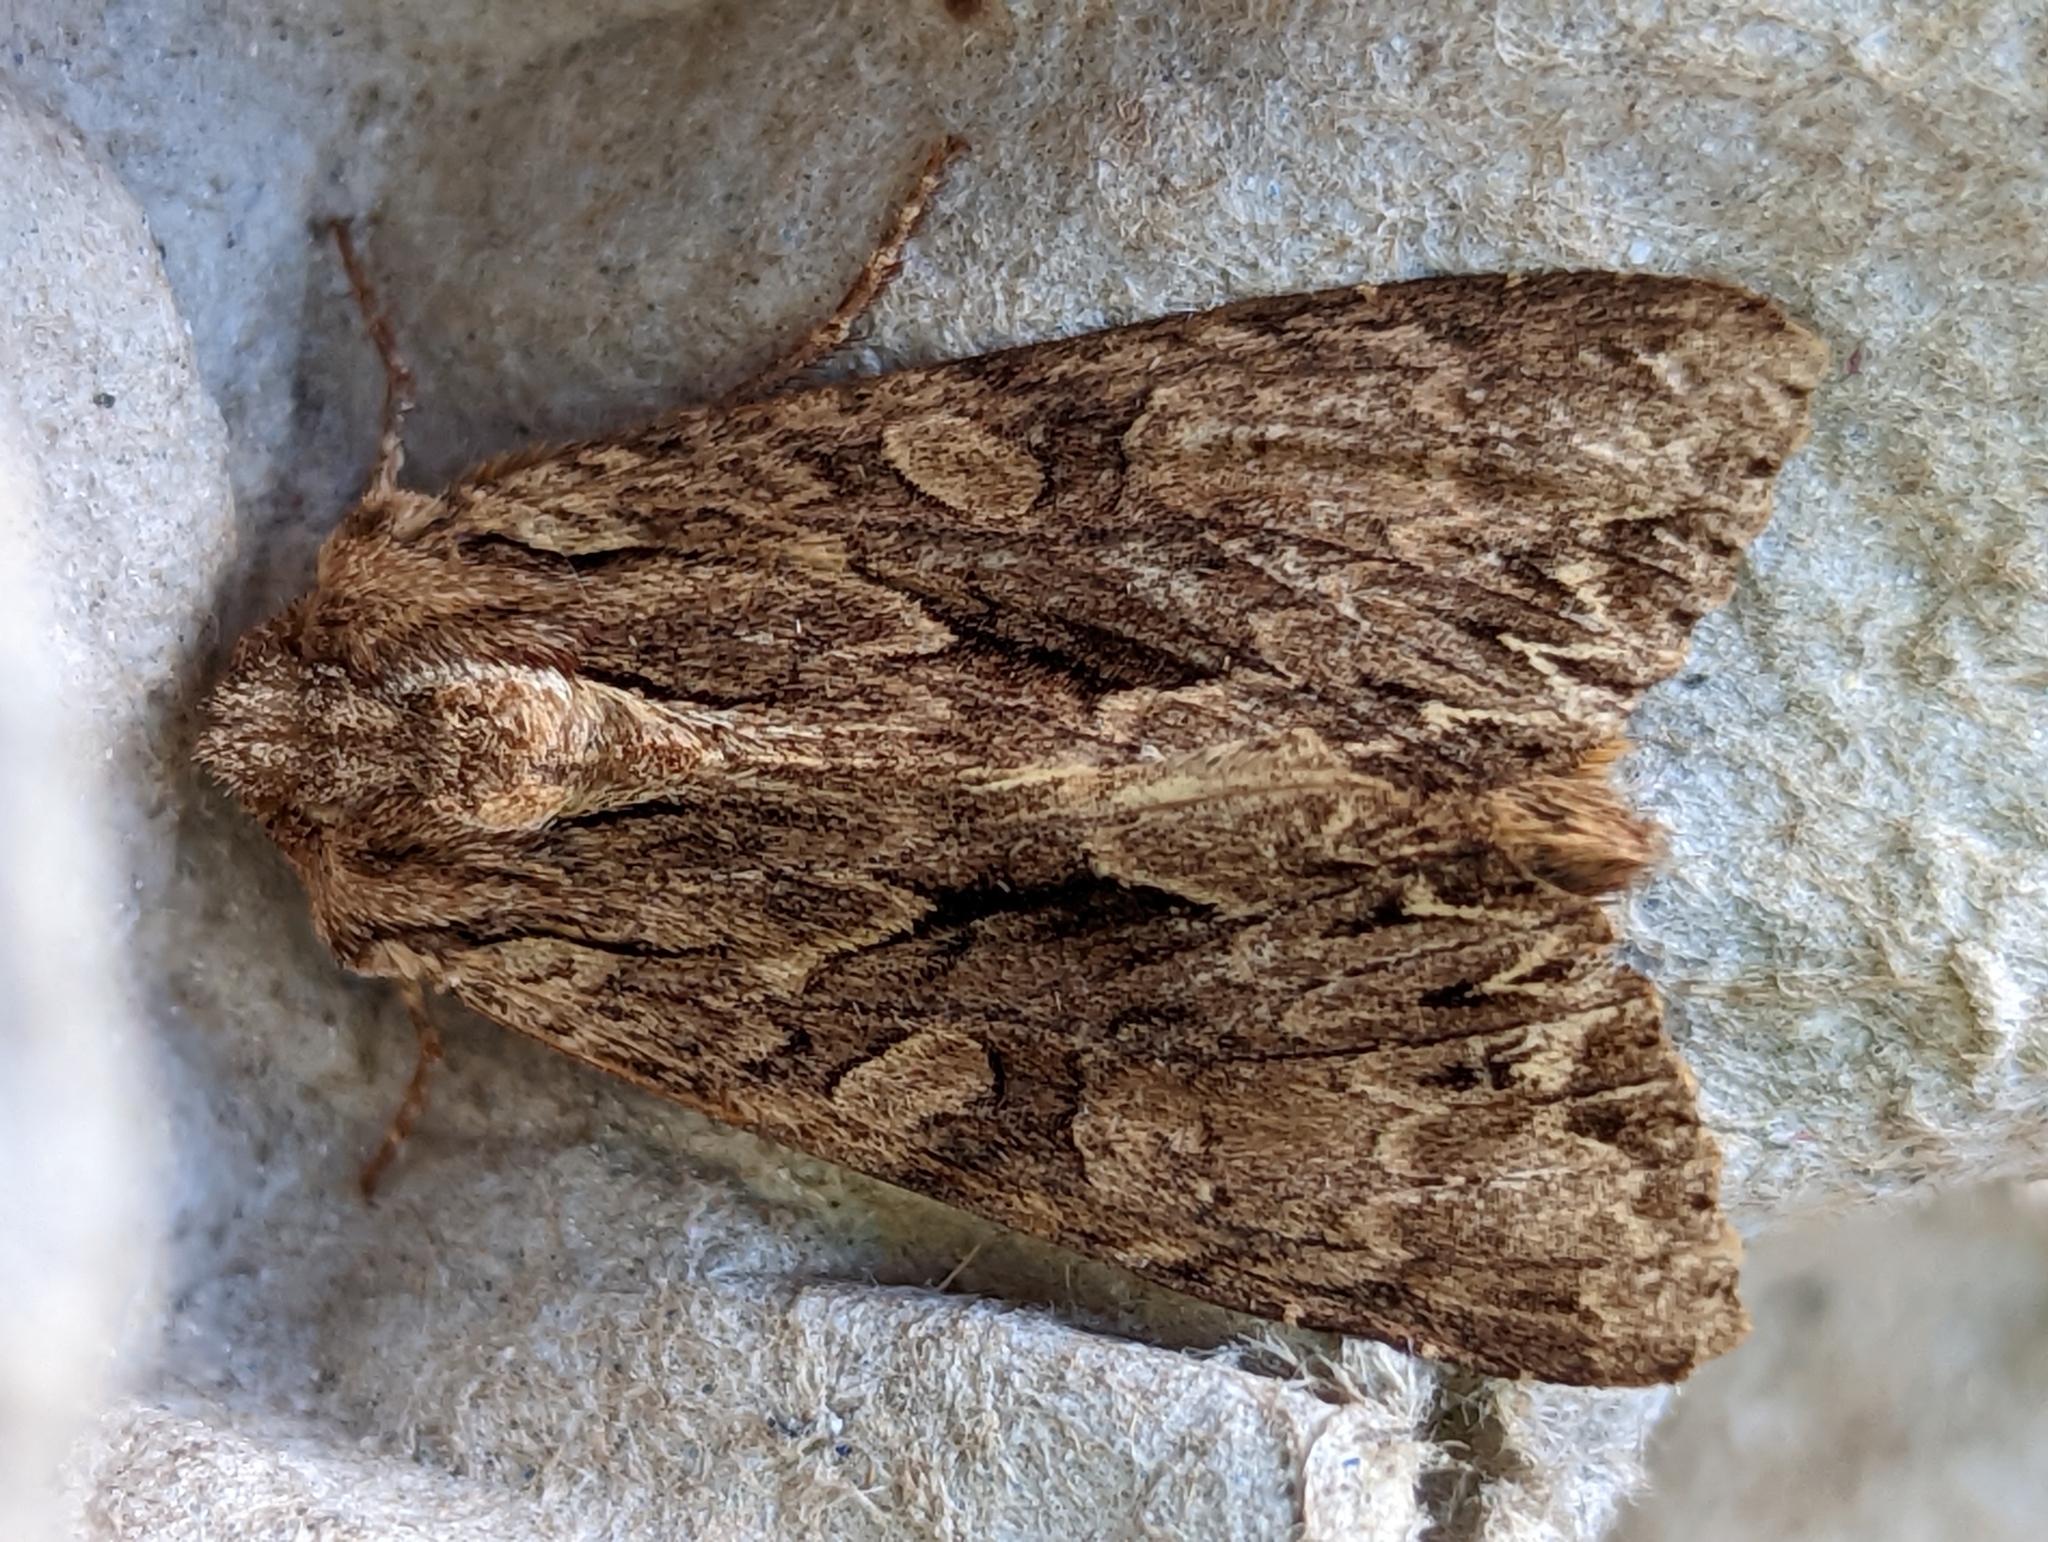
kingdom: Animalia
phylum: Arthropoda
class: Insecta
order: Lepidoptera
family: Noctuidae
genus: Apamea
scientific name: Apamea monoglypha
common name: Dark arches
